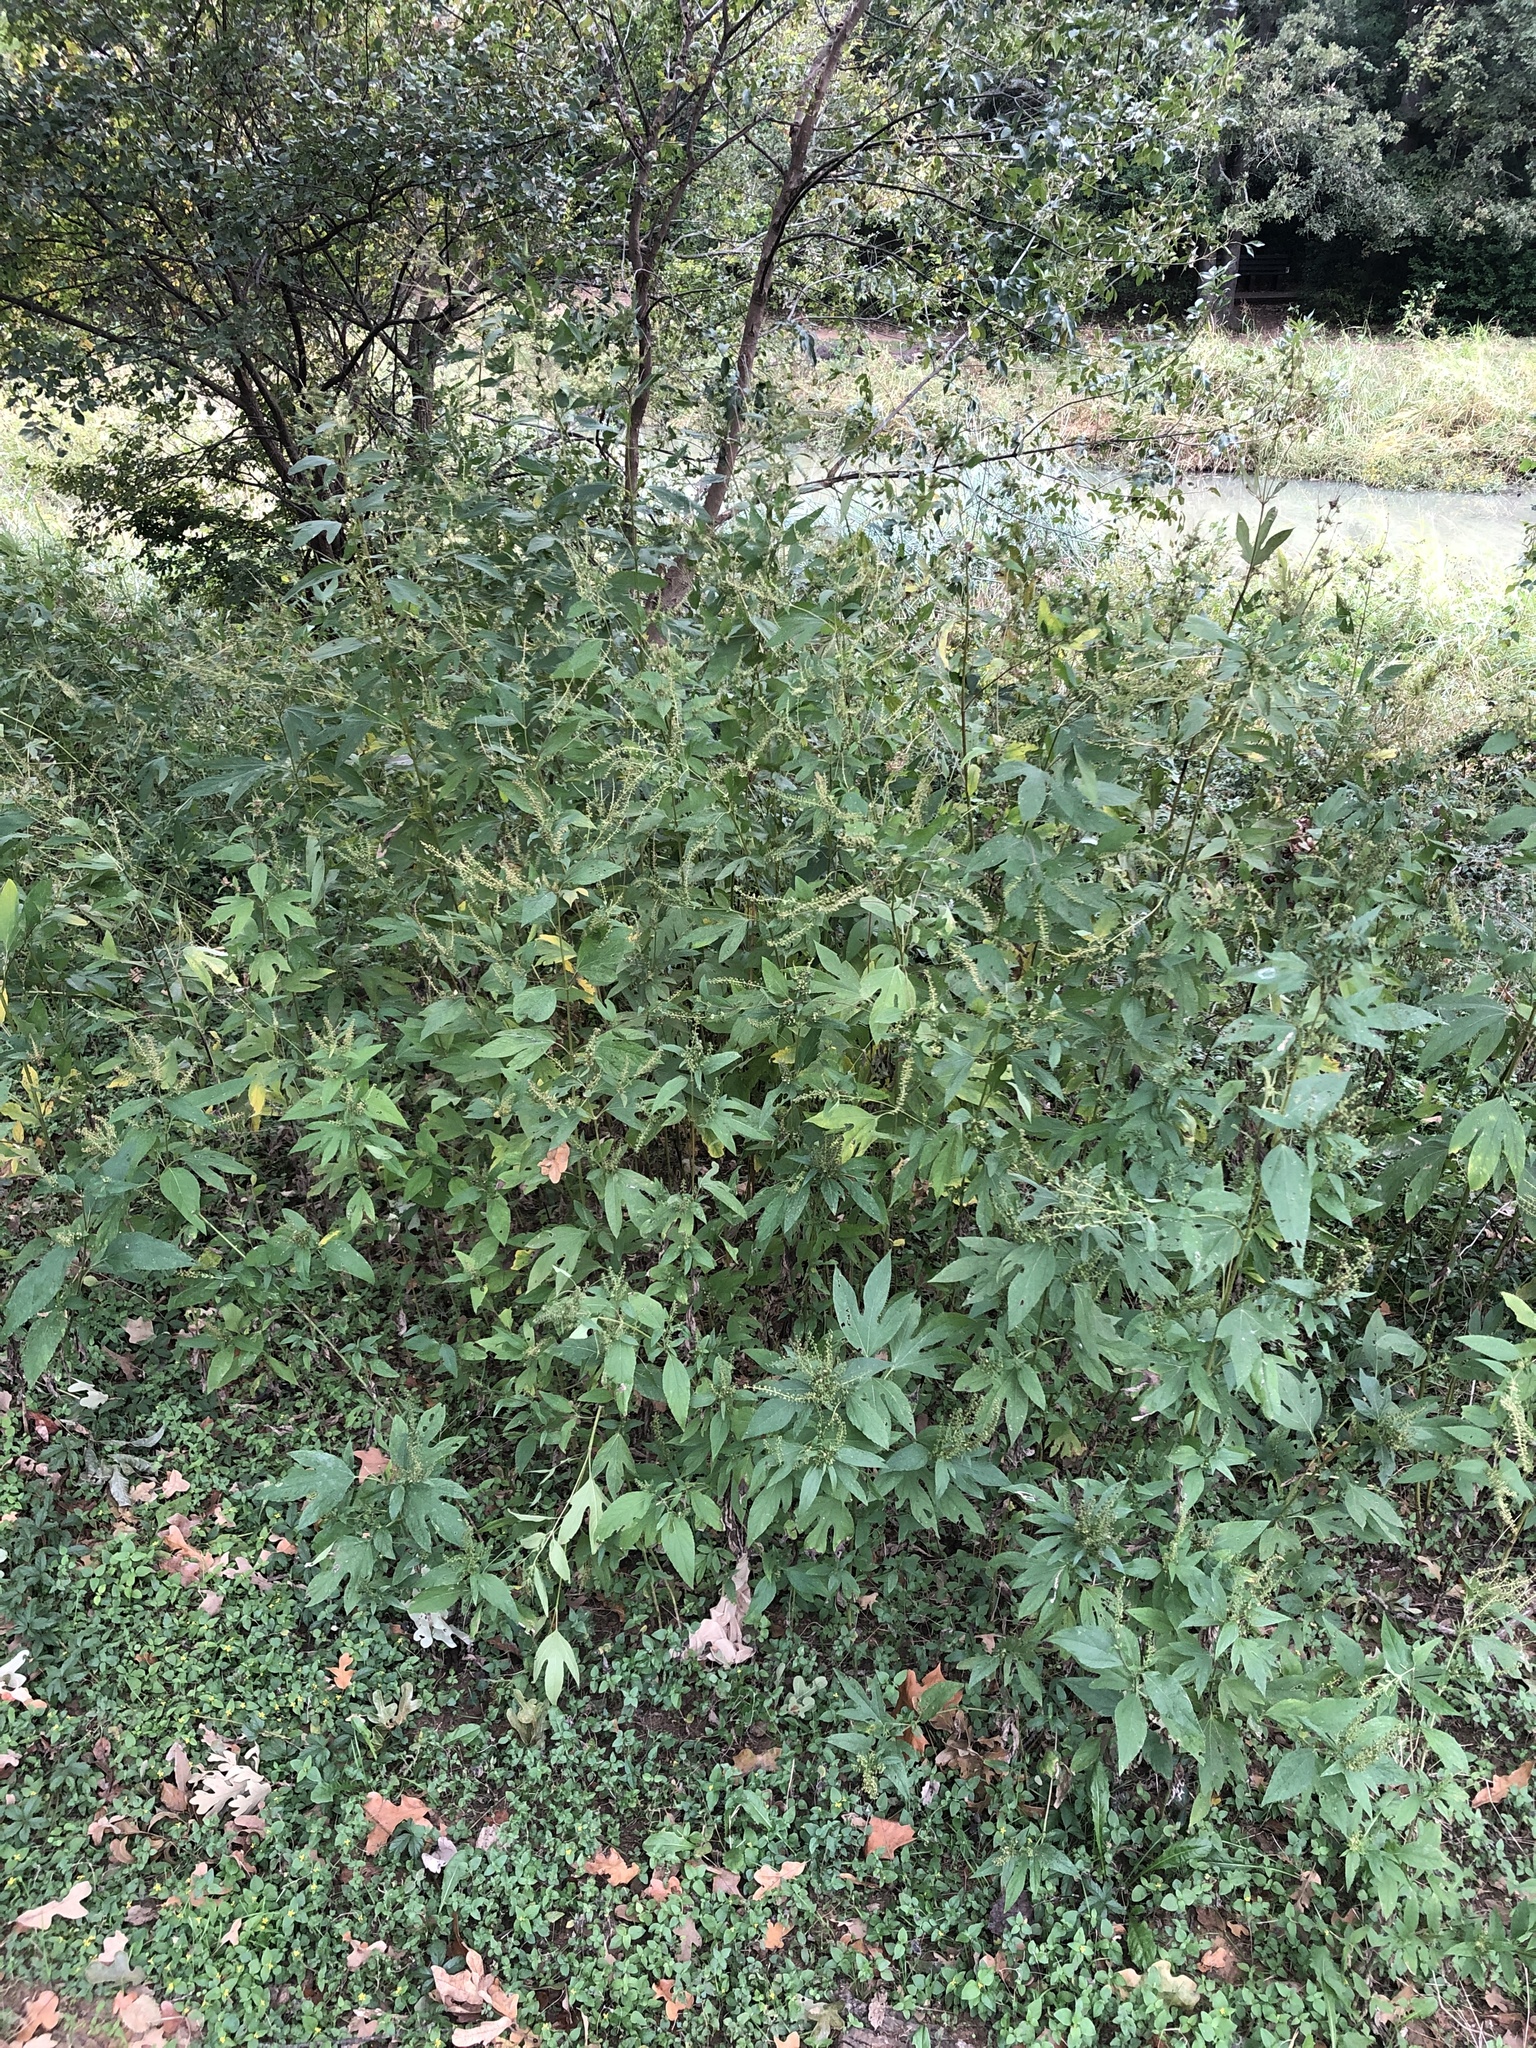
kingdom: Plantae
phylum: Tracheophyta
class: Magnoliopsida
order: Asterales
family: Asteraceae
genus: Ambrosia
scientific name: Ambrosia trifida
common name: Giant ragweed
